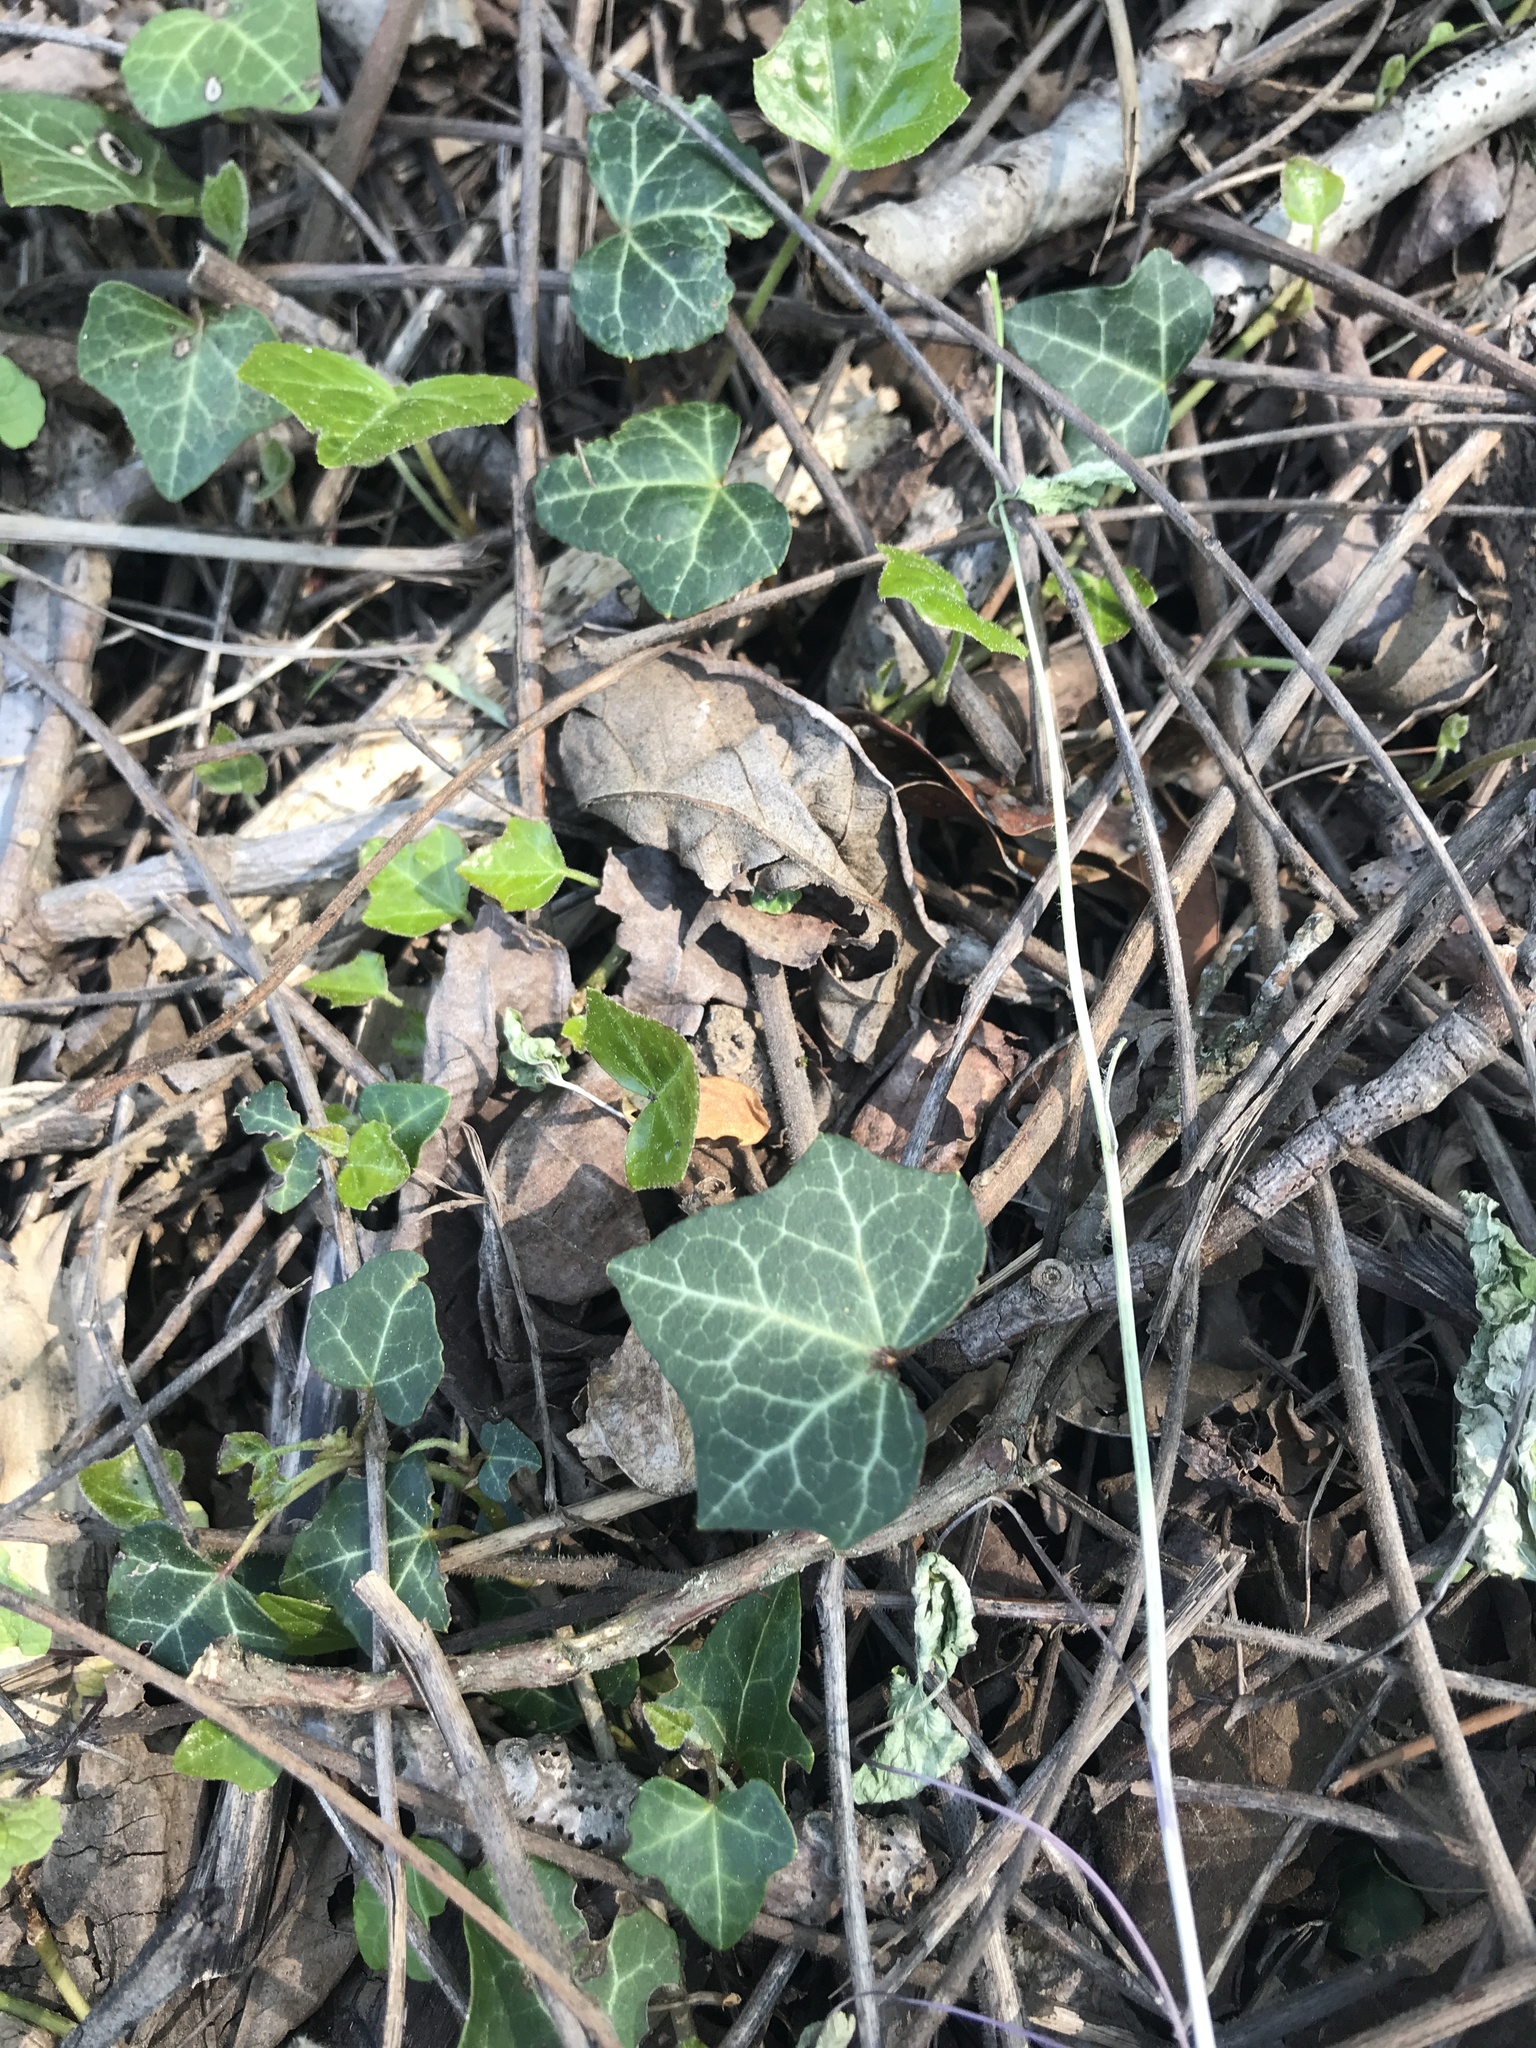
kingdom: Plantae
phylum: Tracheophyta
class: Magnoliopsida
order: Apiales
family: Araliaceae
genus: Hedera
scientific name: Hedera helix
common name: Ivy
